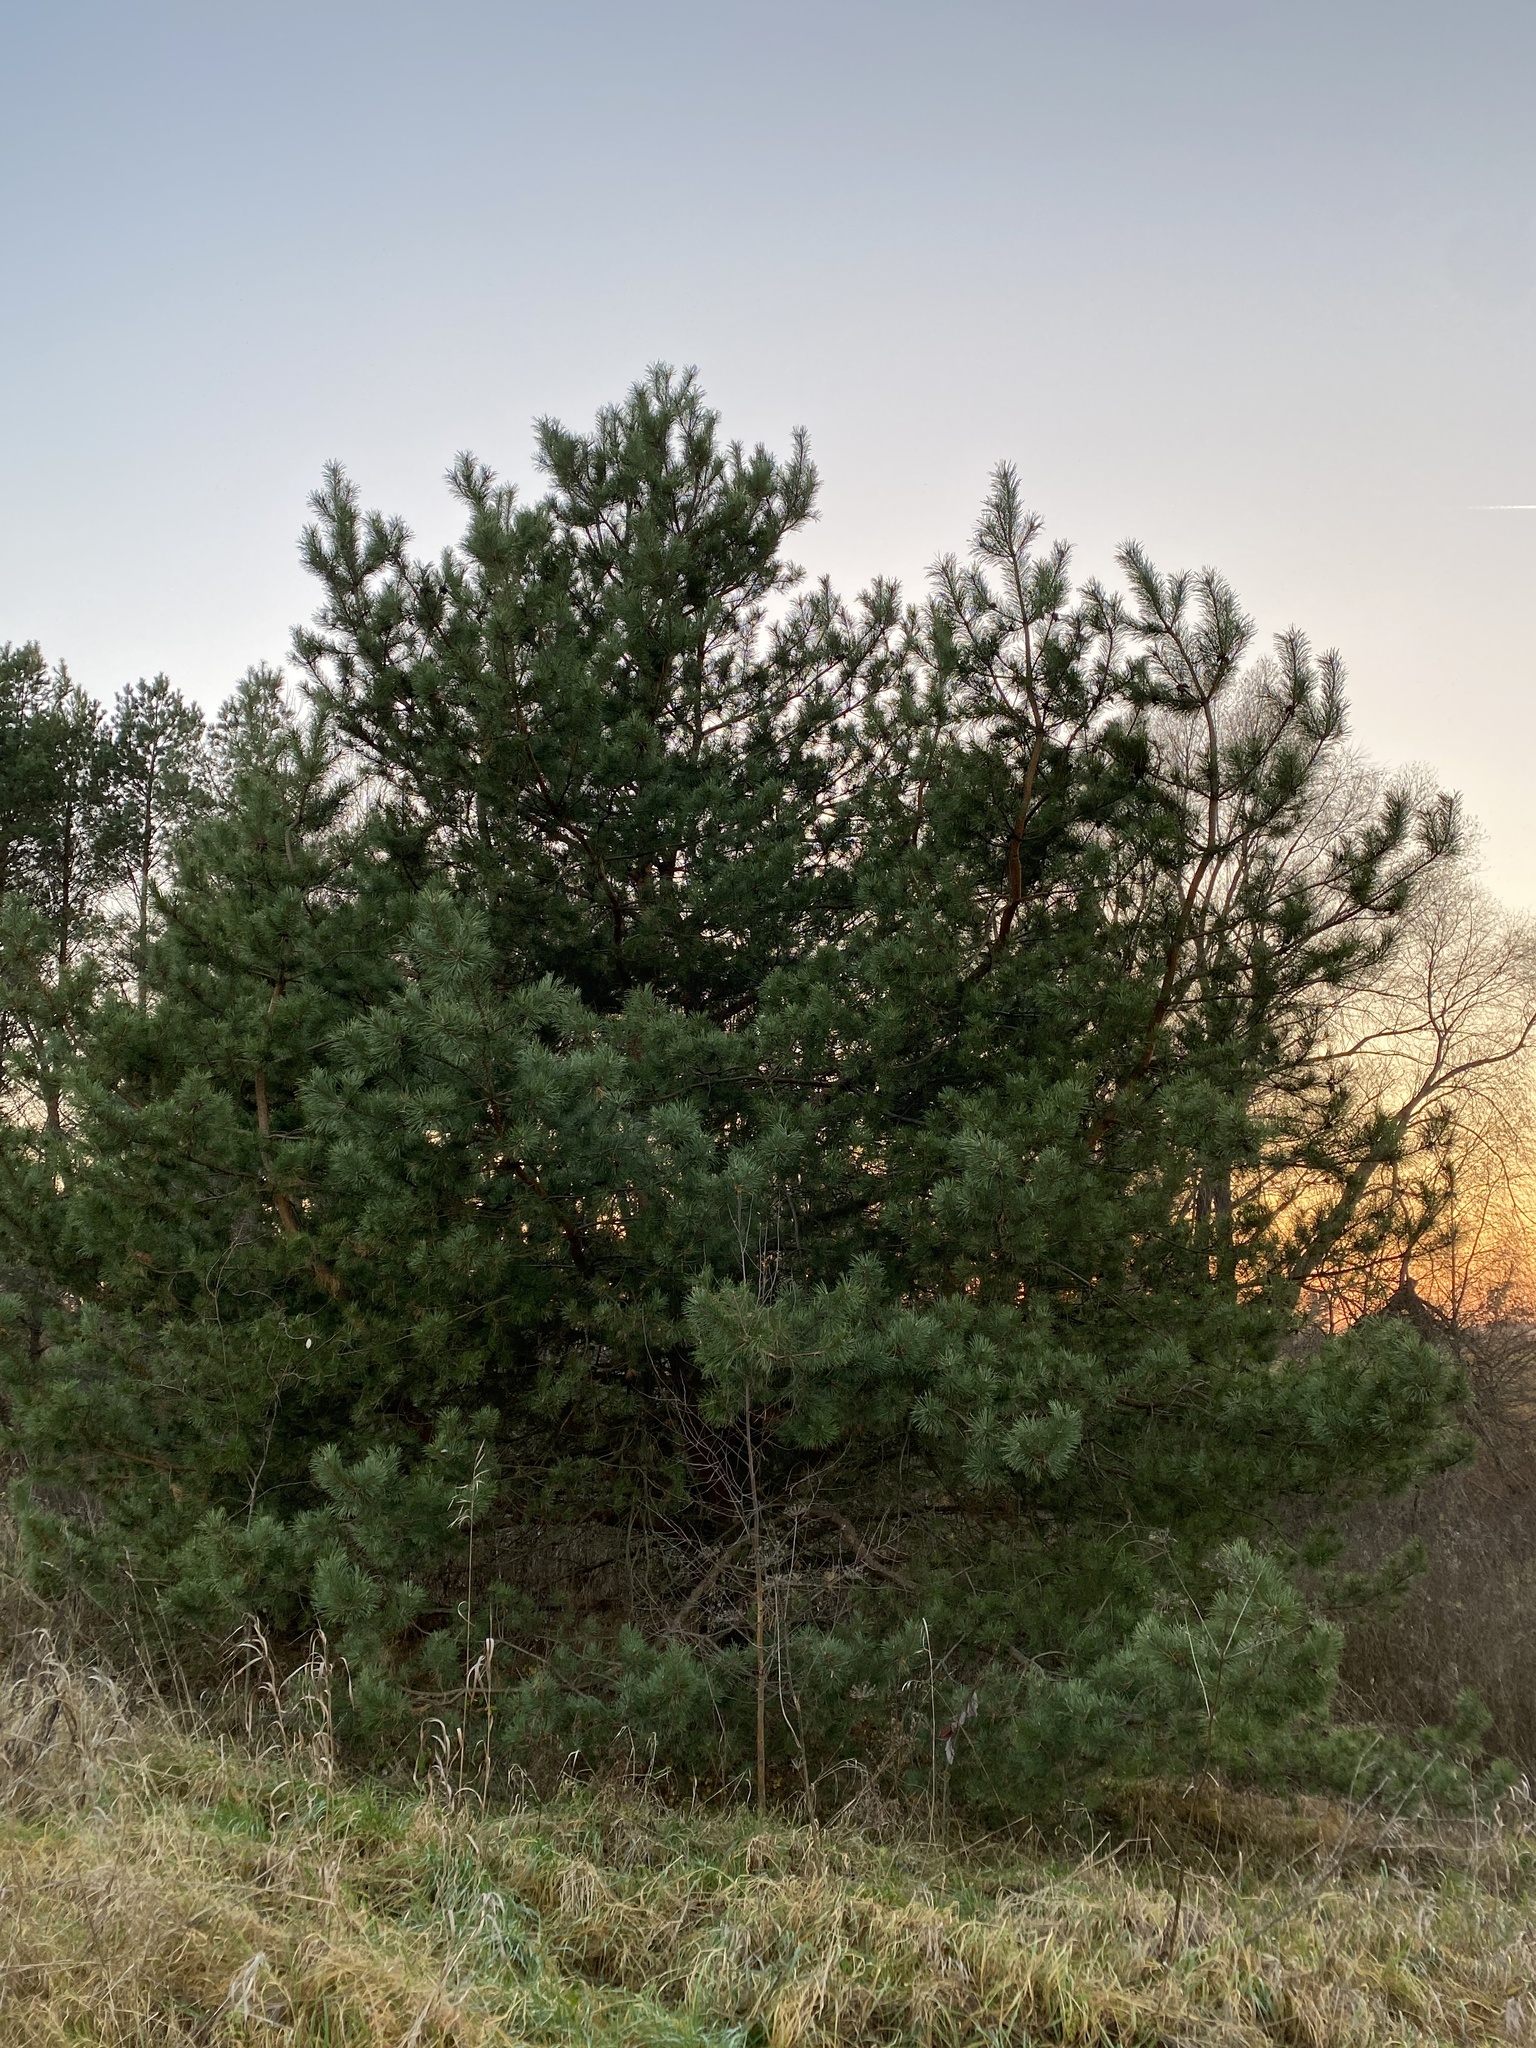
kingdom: Plantae
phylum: Tracheophyta
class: Pinopsida
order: Pinales
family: Pinaceae
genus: Pinus
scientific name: Pinus sylvestris
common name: Scots pine
